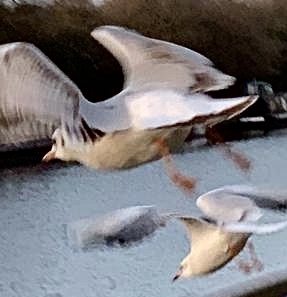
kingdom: Animalia
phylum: Chordata
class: Aves
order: Charadriiformes
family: Laridae
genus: Chroicocephalus
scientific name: Chroicocephalus ridibundus
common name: Black-headed gull
